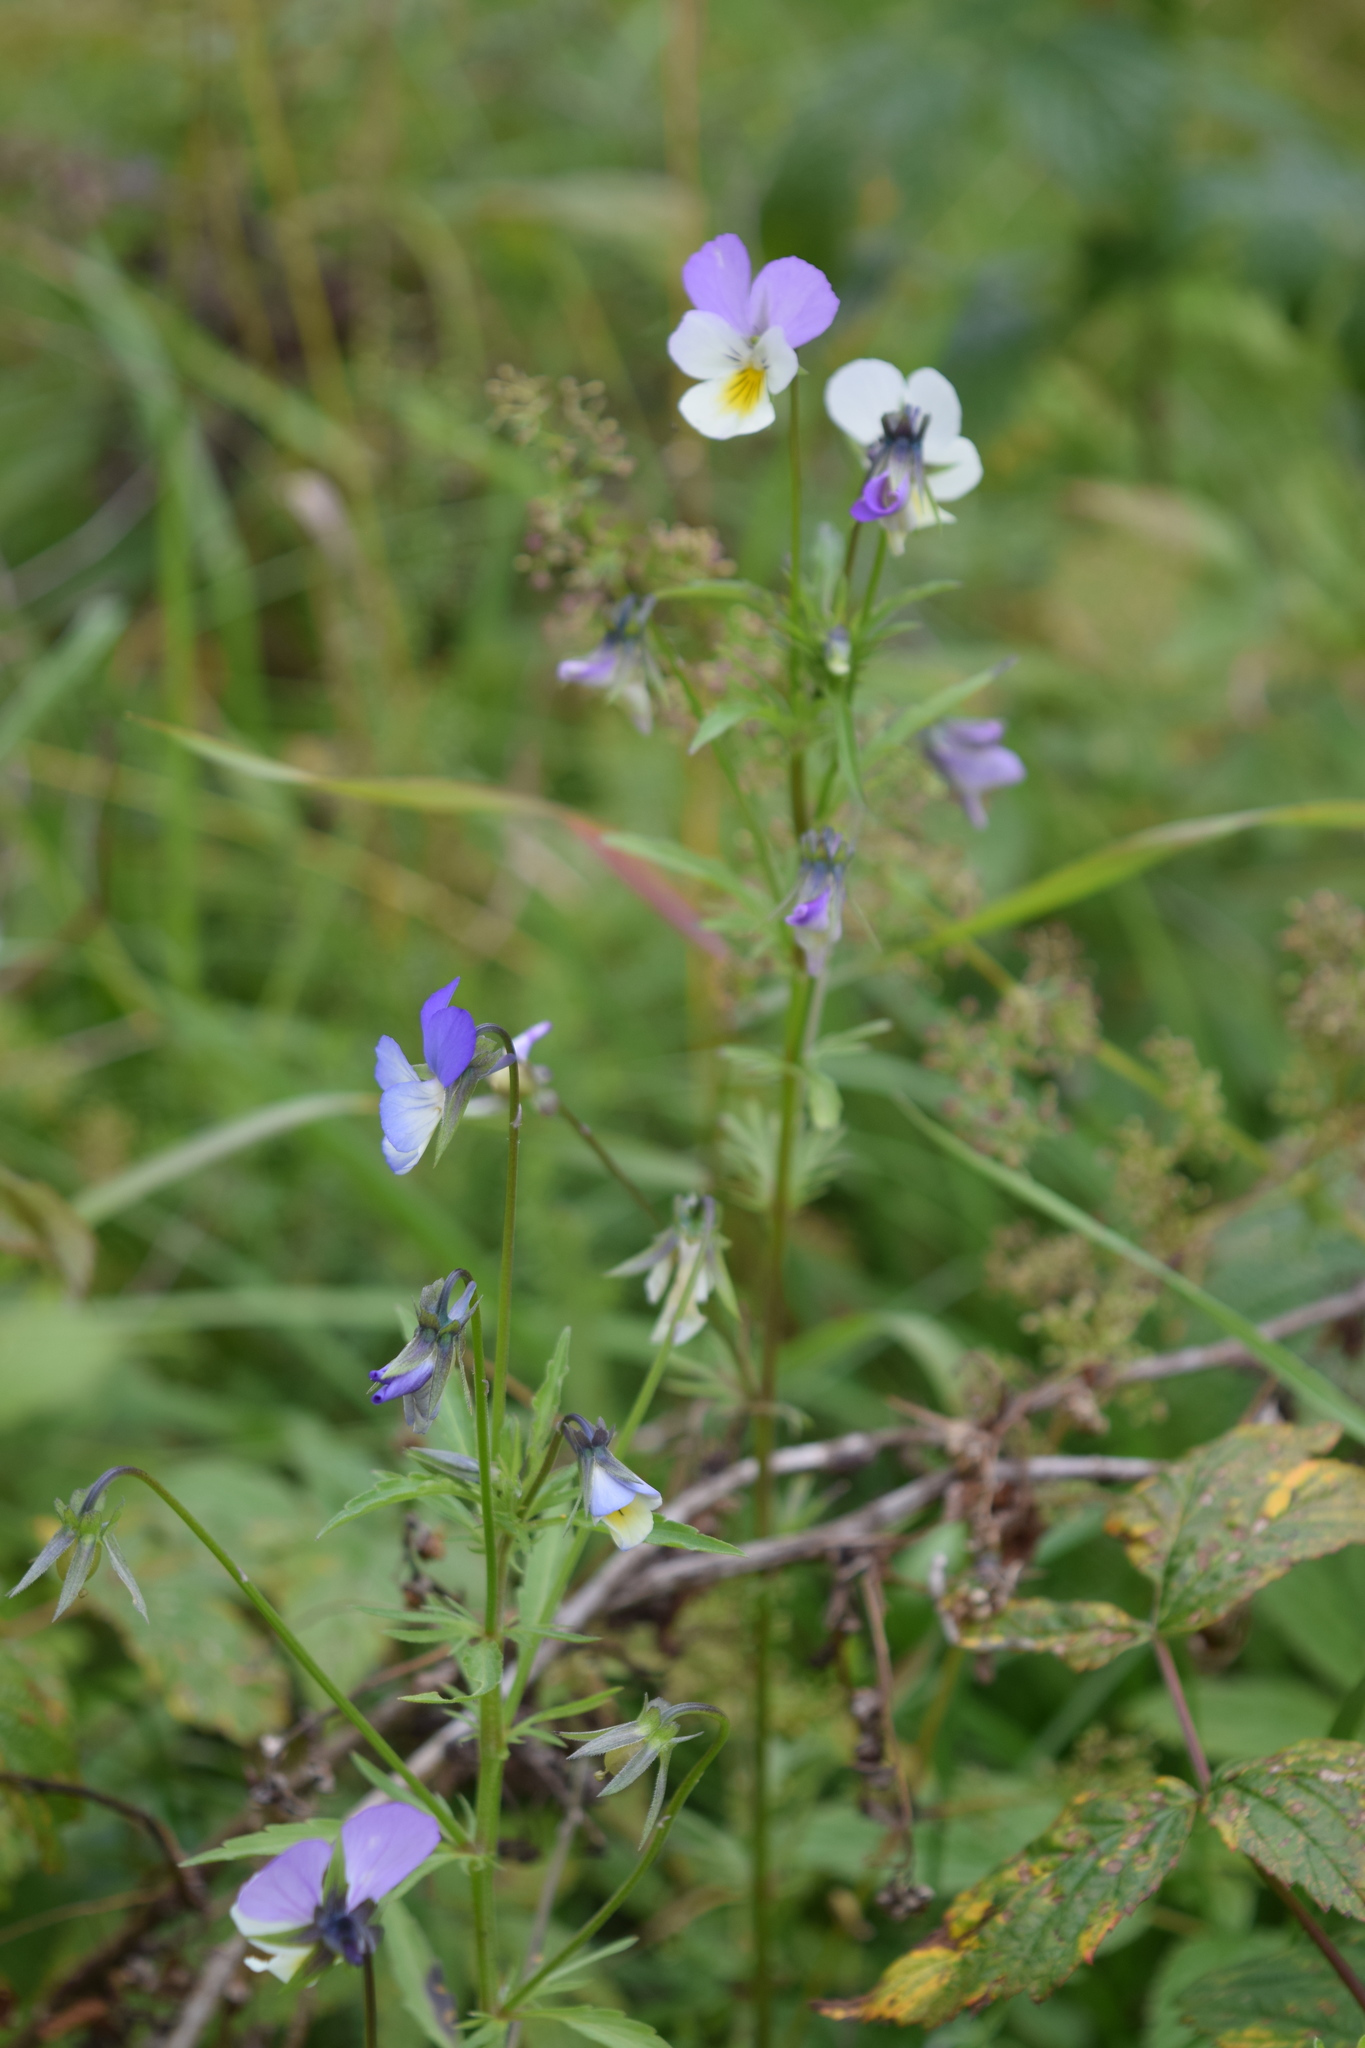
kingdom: Plantae
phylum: Tracheophyta
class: Magnoliopsida
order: Malpighiales
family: Violaceae
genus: Viola
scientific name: Viola tricolor
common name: Pansy
